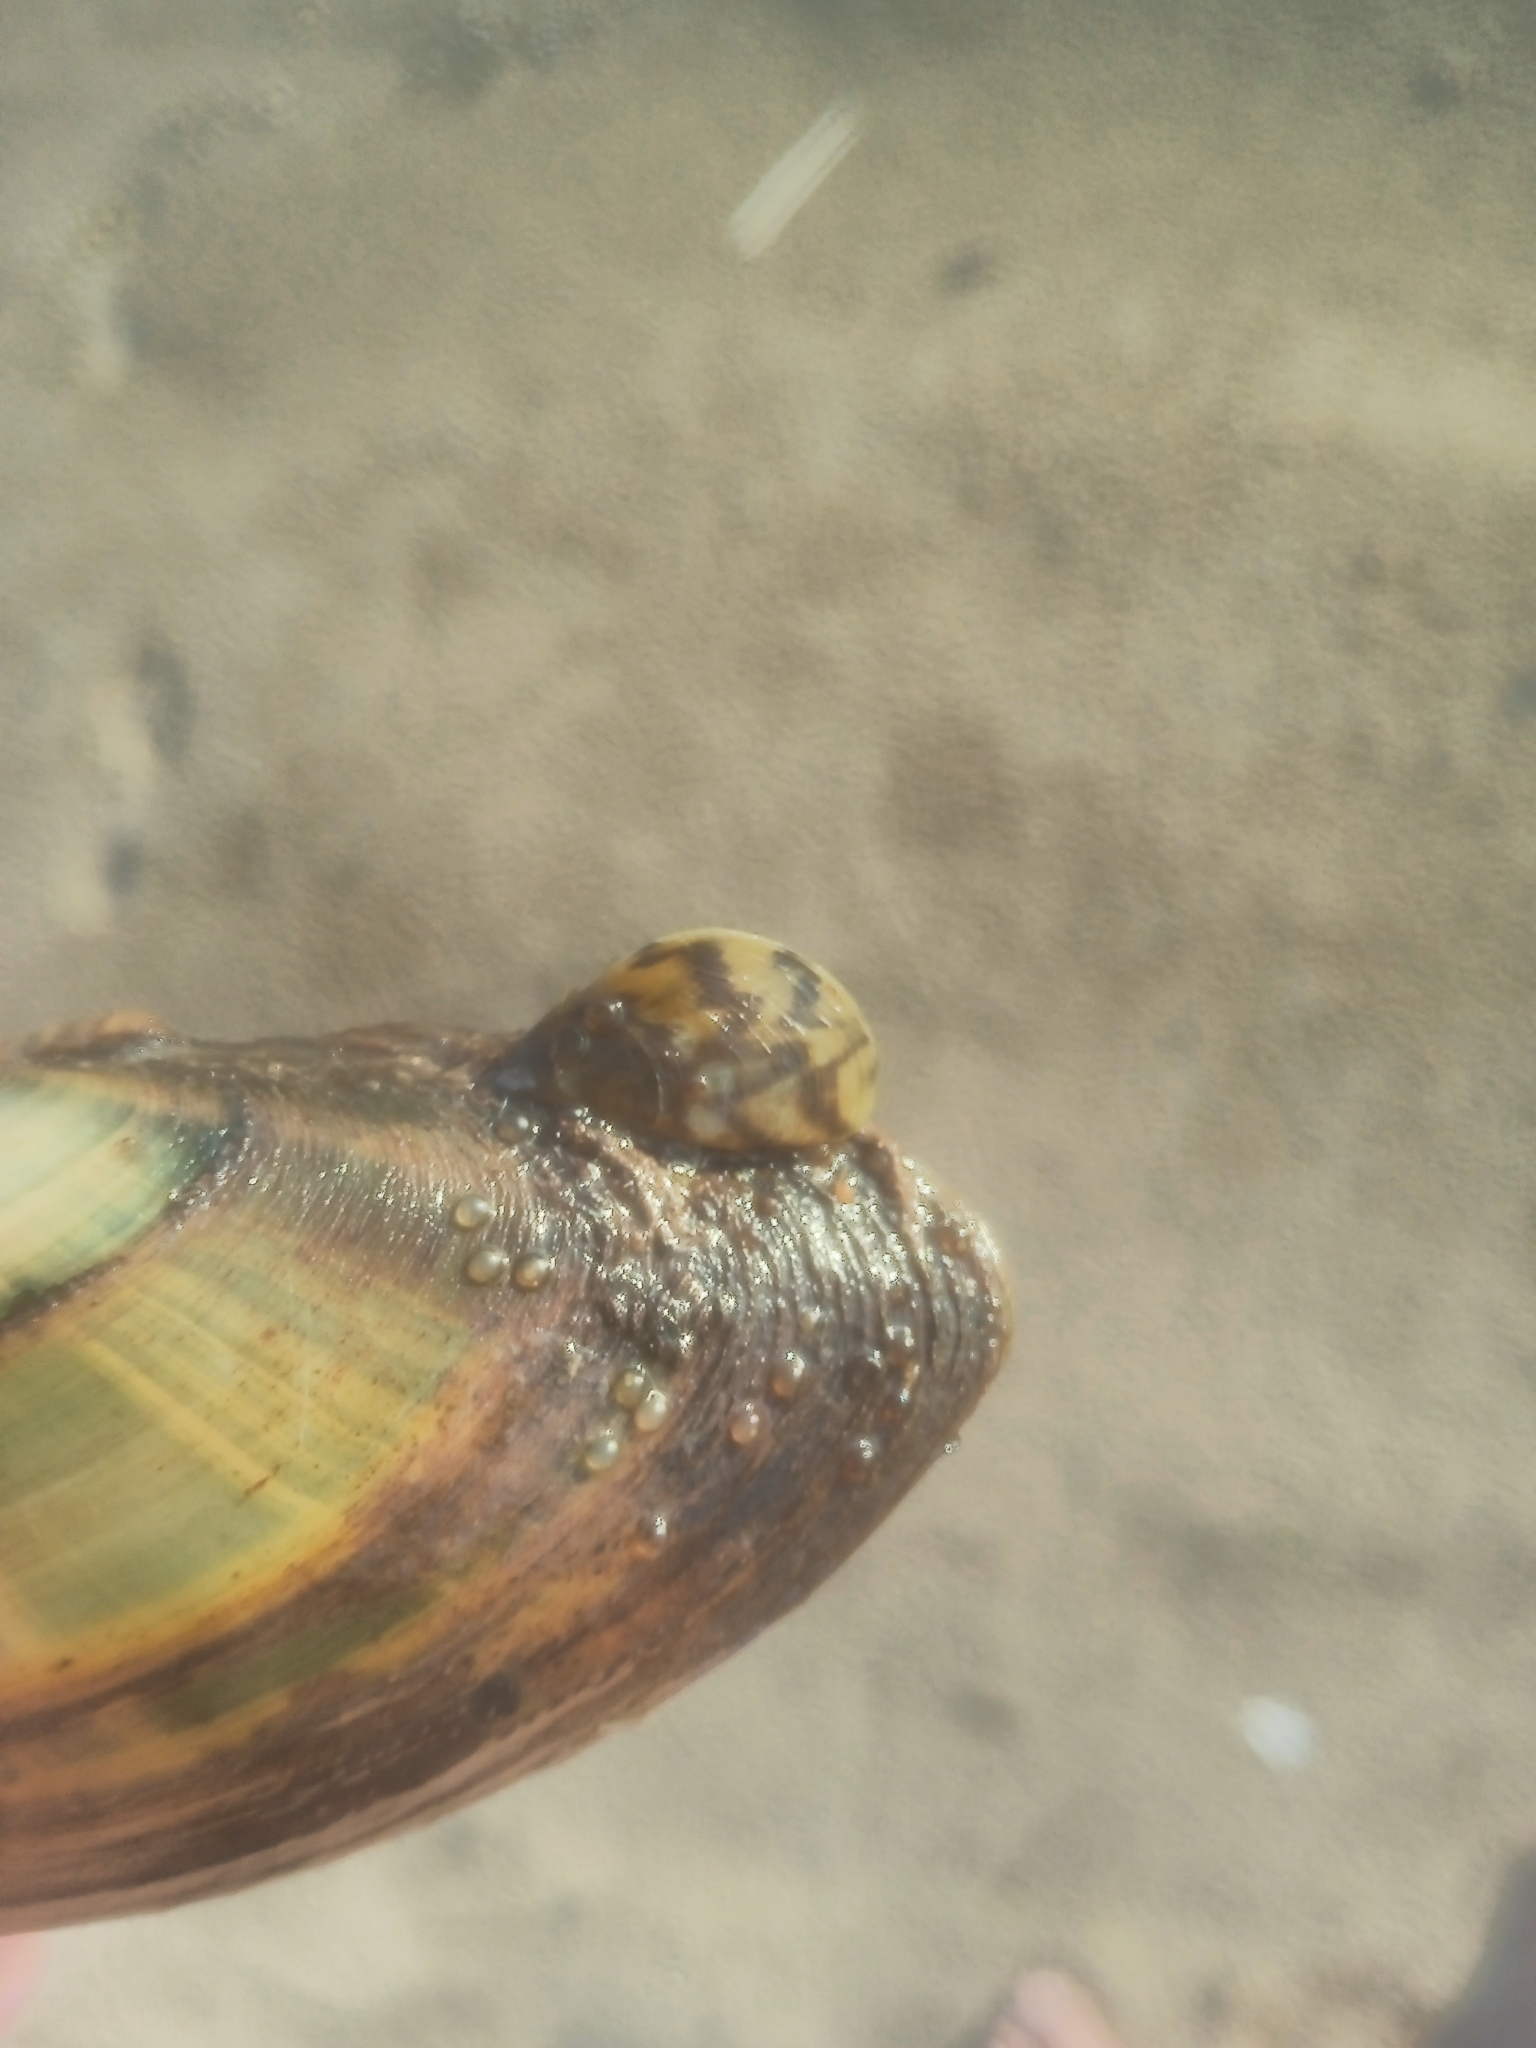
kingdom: Animalia
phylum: Mollusca
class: Bivalvia
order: Myida
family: Dreissenidae
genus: Dreissena
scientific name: Dreissena polymorpha
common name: Zebra mussel
